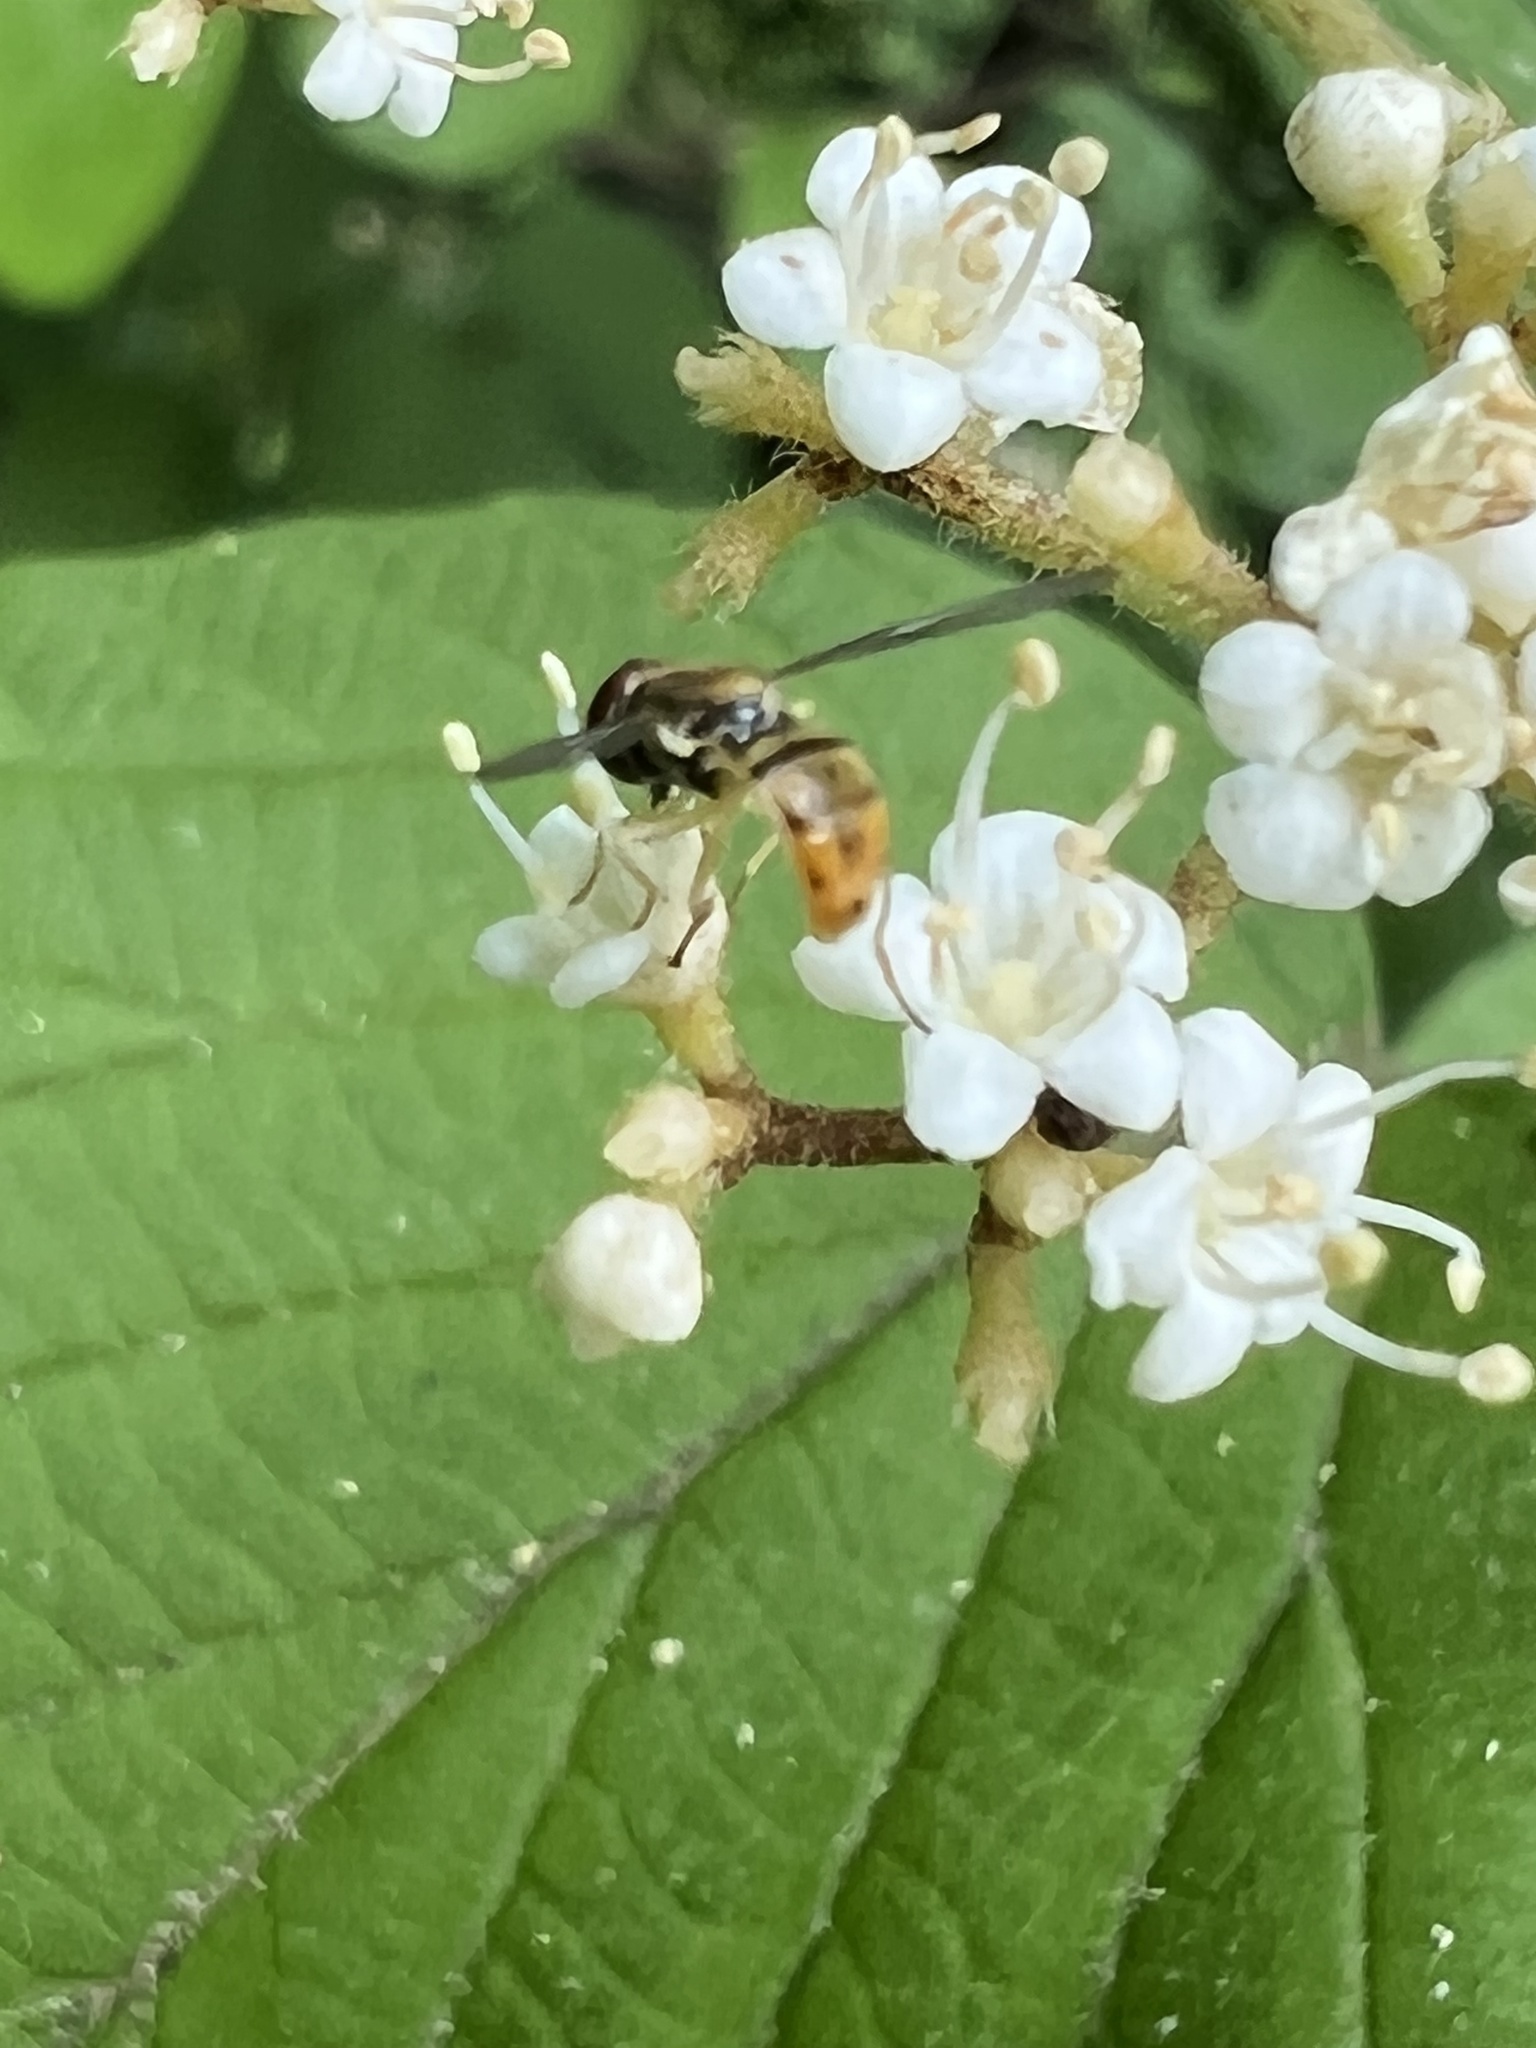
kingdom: Animalia
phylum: Arthropoda
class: Insecta
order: Diptera
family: Syrphidae
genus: Toxomerus
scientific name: Toxomerus marginatus
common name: Syrphid fly
